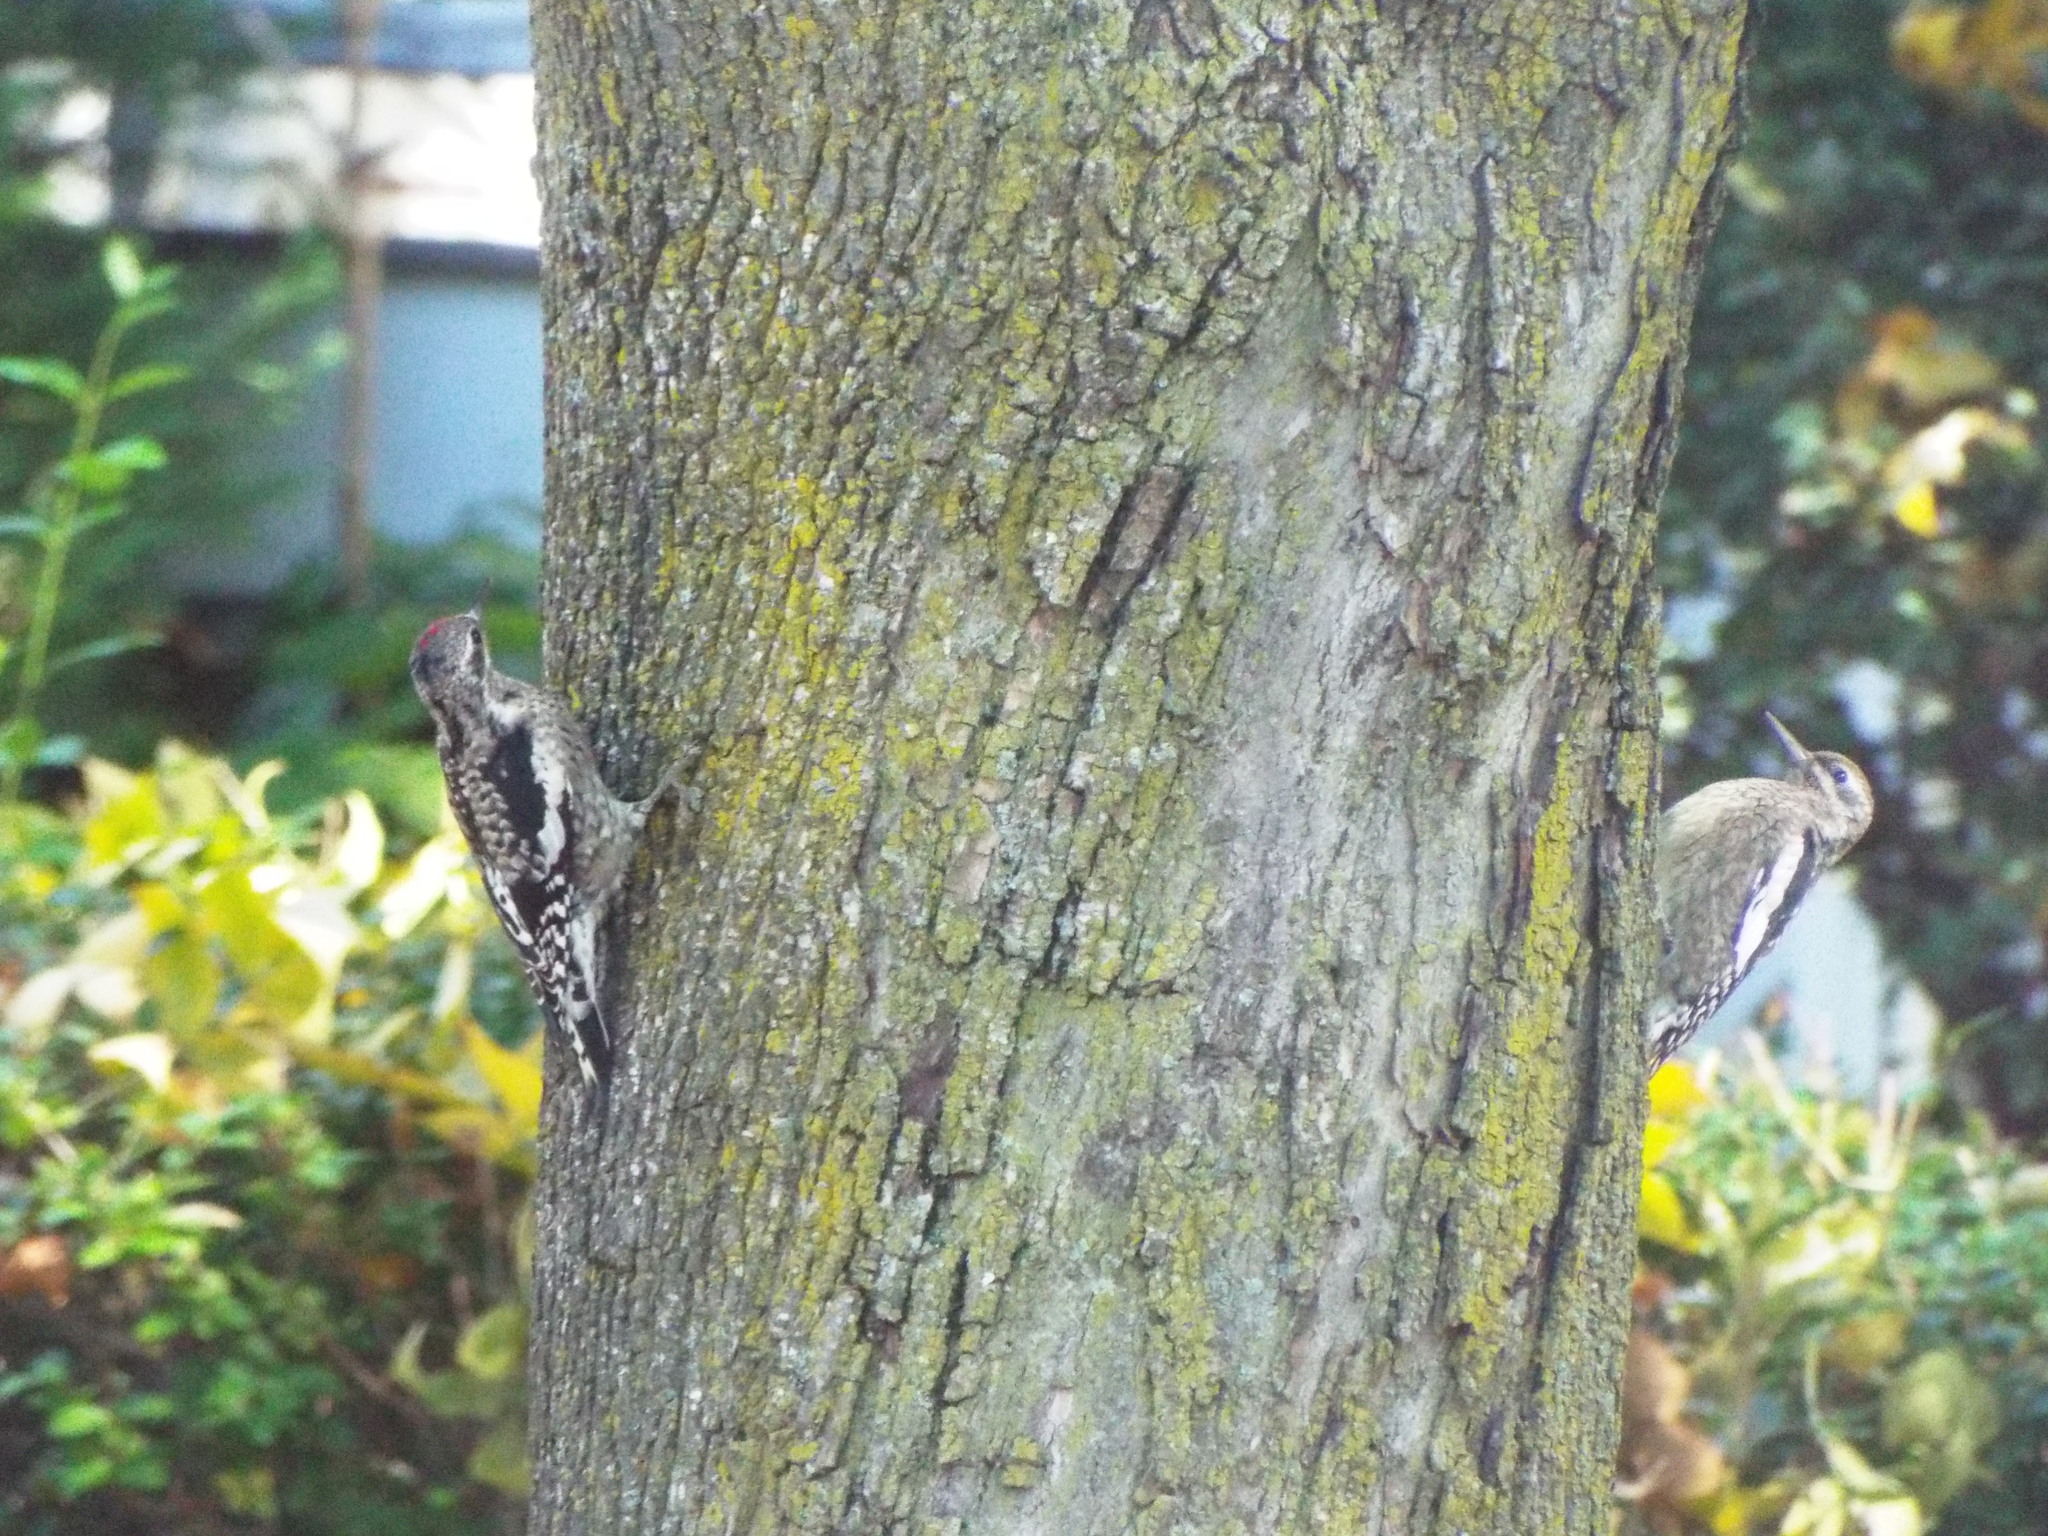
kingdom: Animalia
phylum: Chordata
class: Aves
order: Piciformes
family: Picidae
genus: Sphyrapicus
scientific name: Sphyrapicus varius
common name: Yellow-bellied sapsucker
